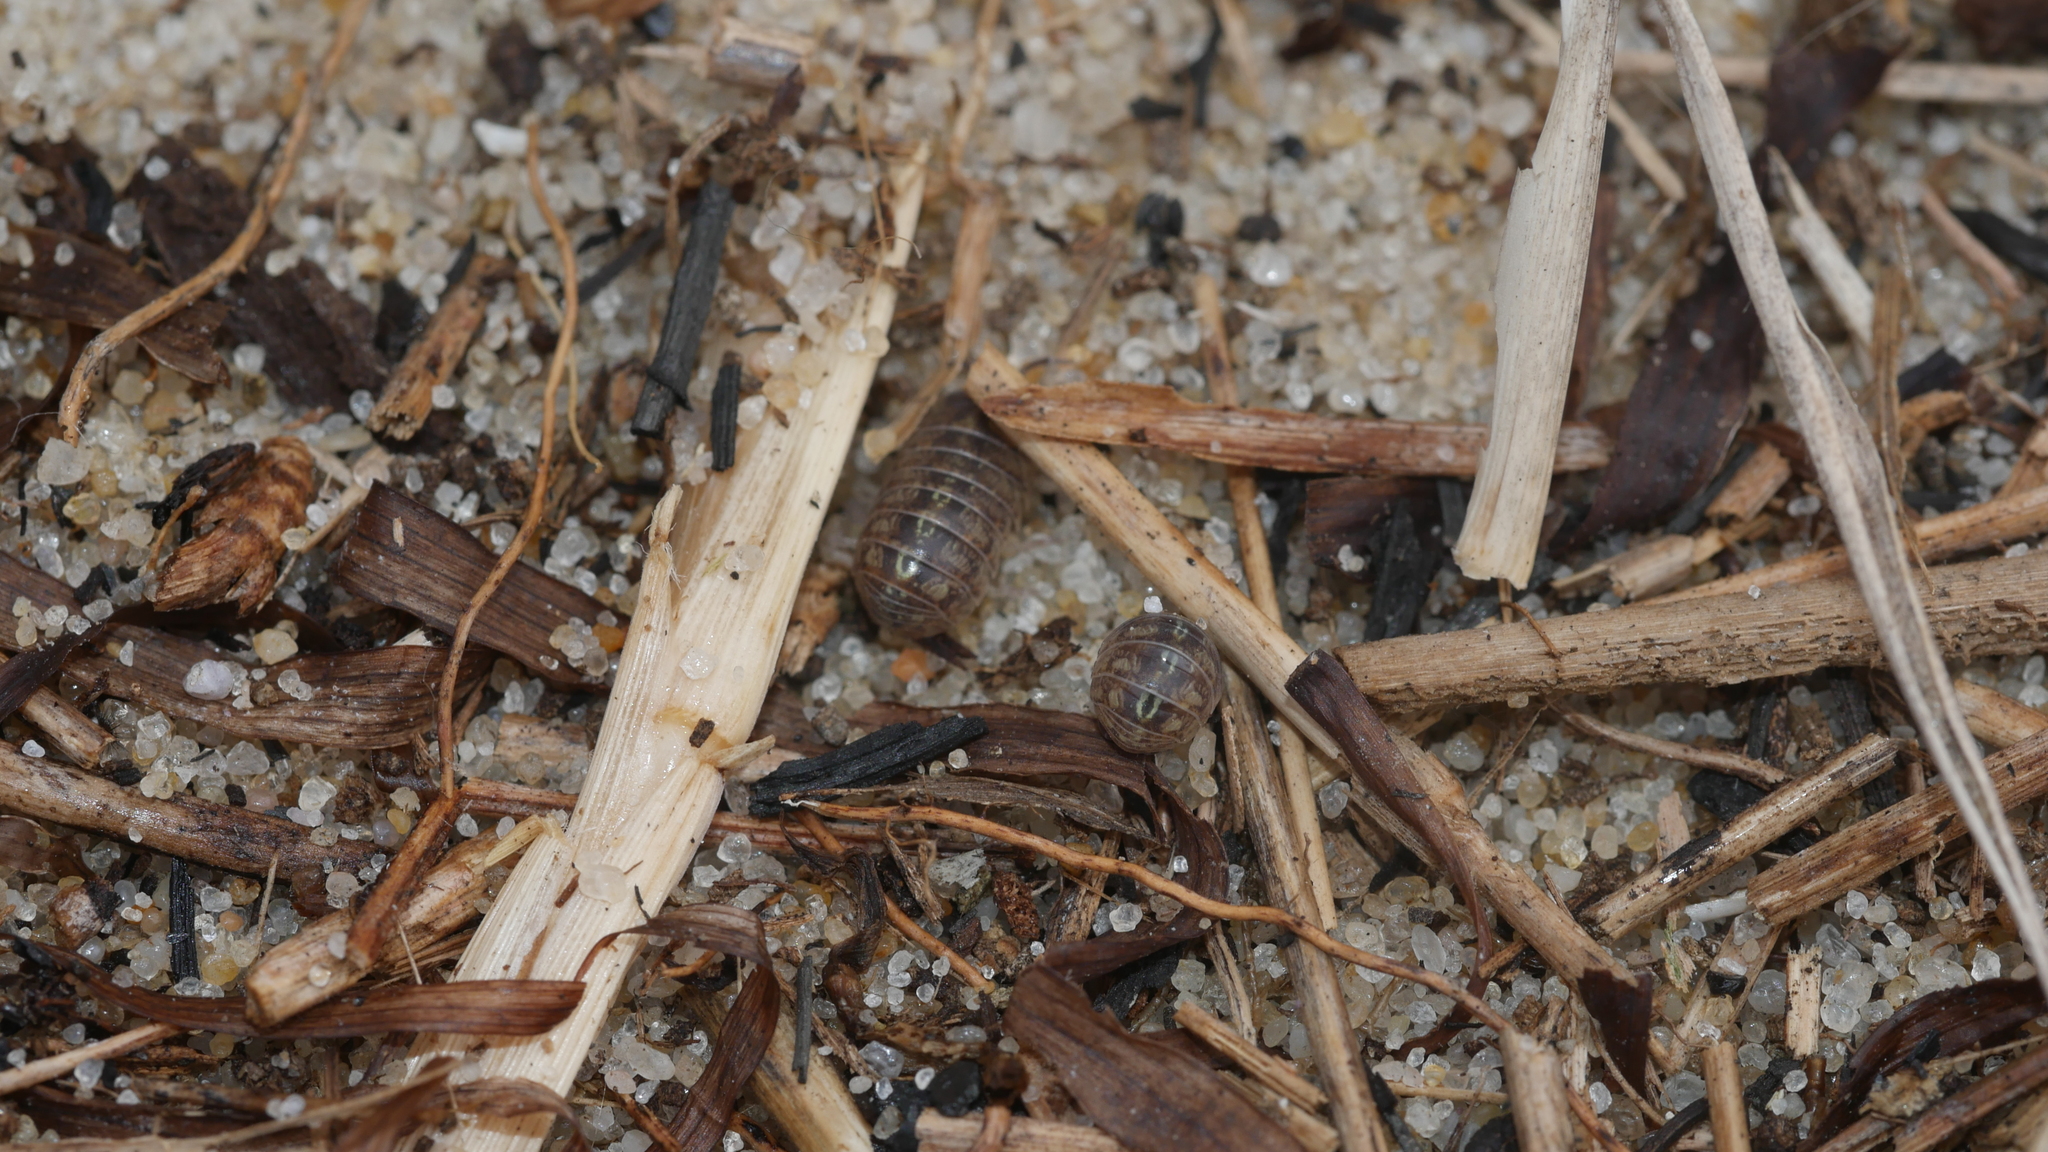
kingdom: Animalia
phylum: Arthropoda
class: Malacostraca
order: Isopoda
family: Armadillidiidae
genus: Armadillidium
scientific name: Armadillidium vulgare
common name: Common pill woodlouse
